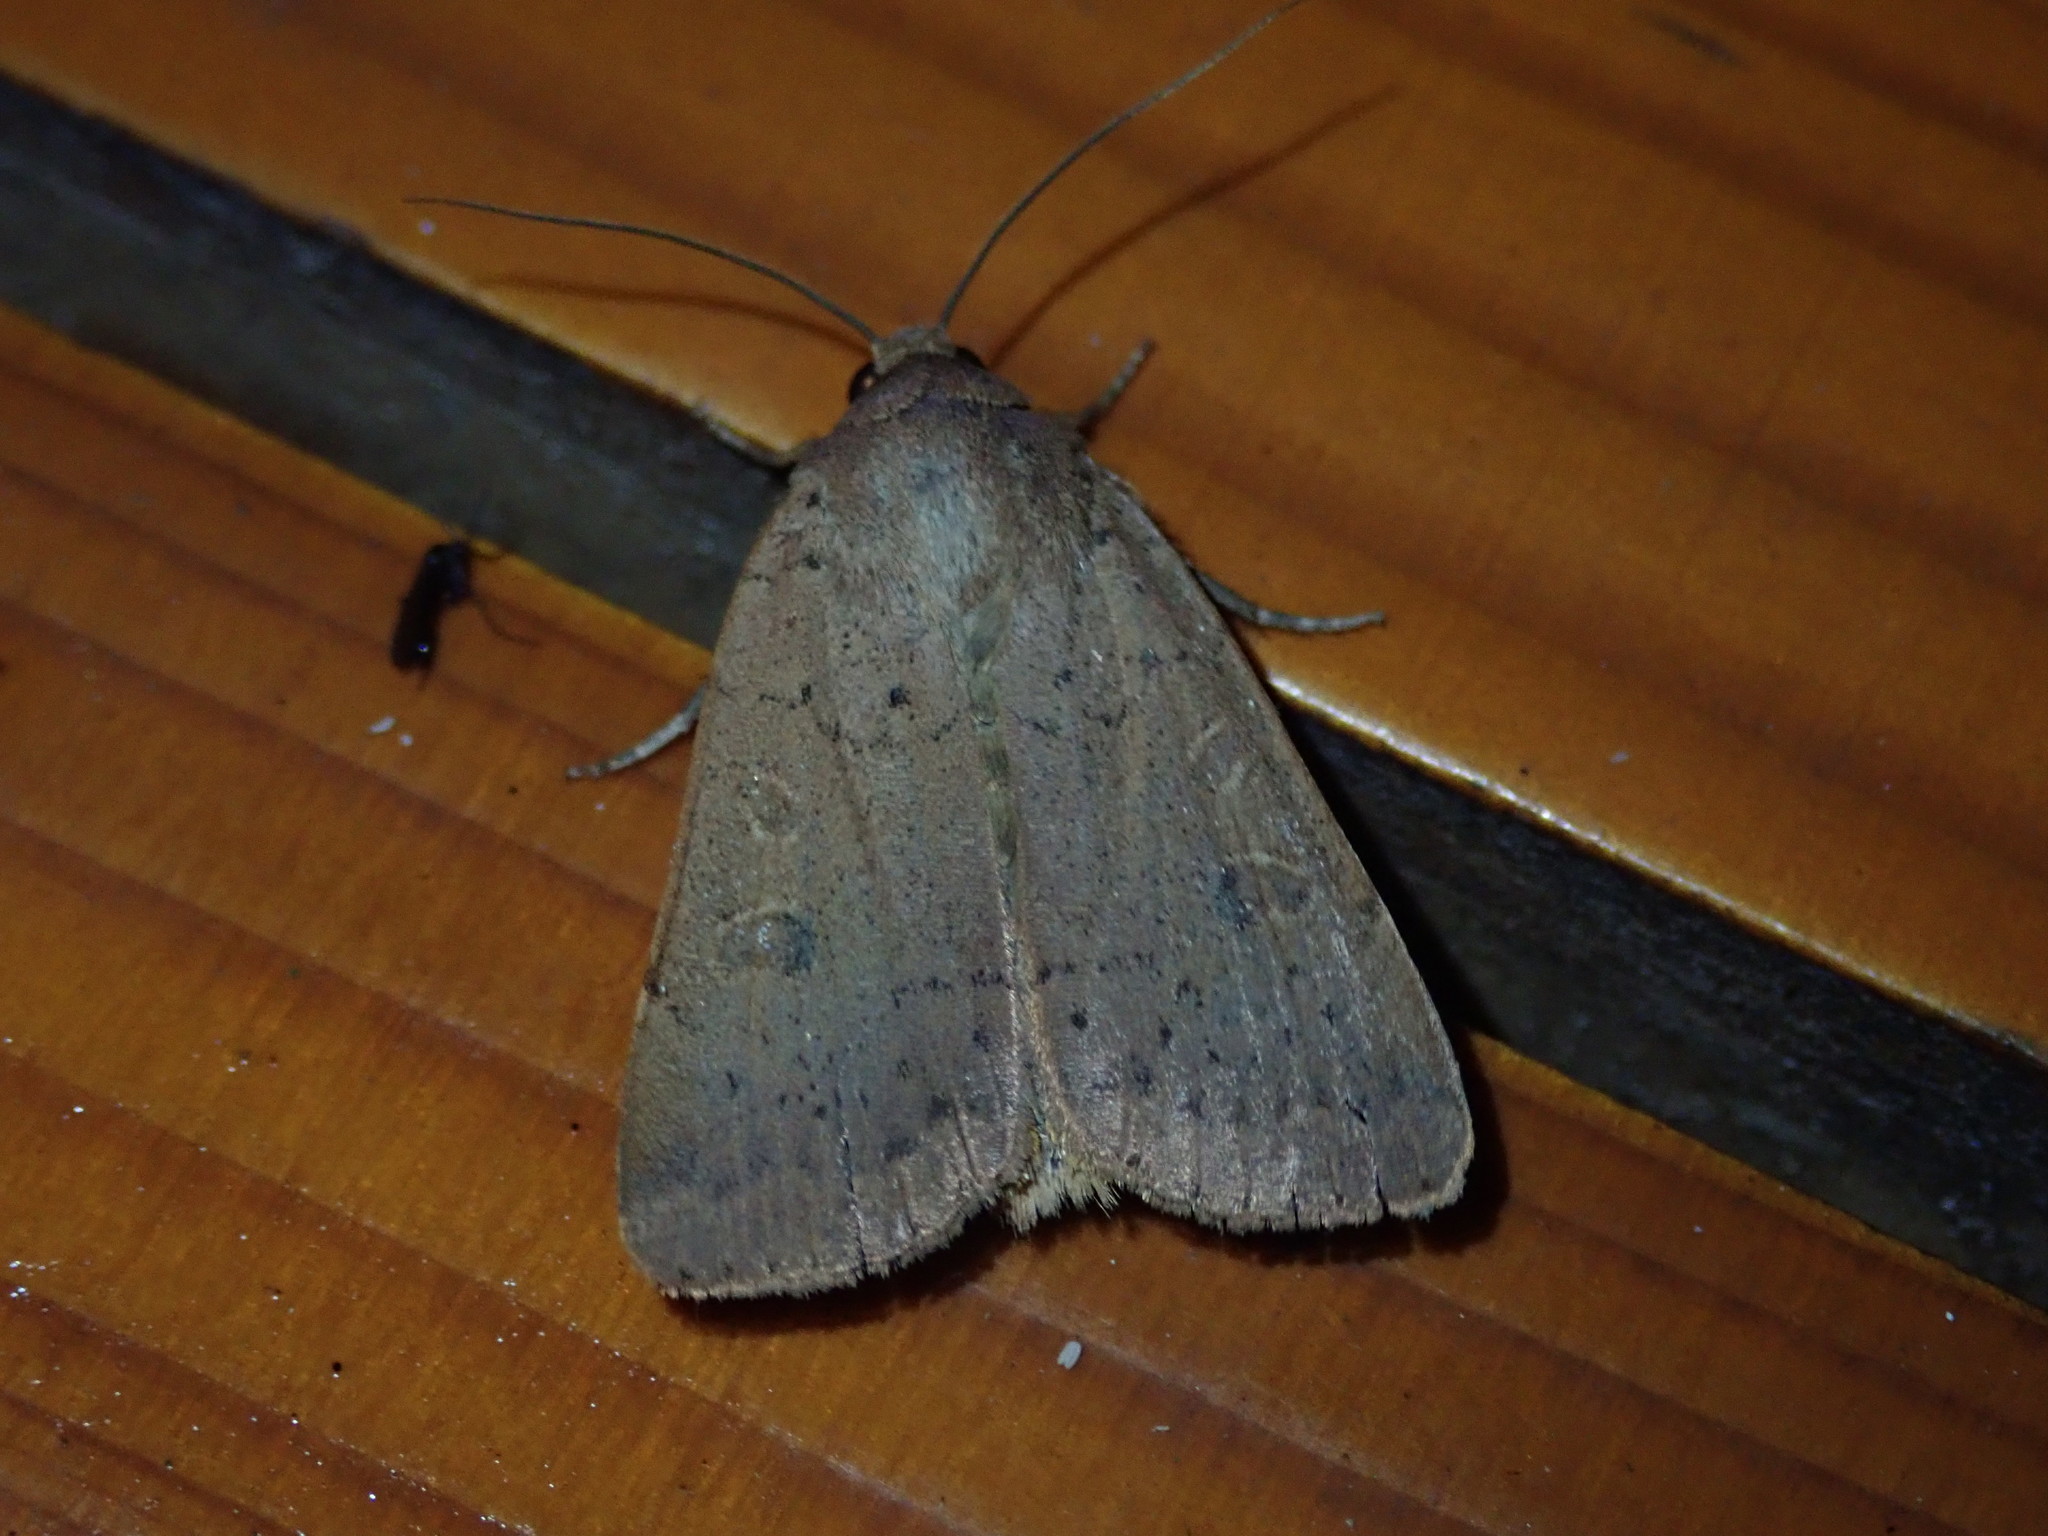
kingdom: Animalia
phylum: Arthropoda
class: Insecta
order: Lepidoptera
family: Noctuidae
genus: Xestia
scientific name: Xestia castanea
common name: Neglected rustic
